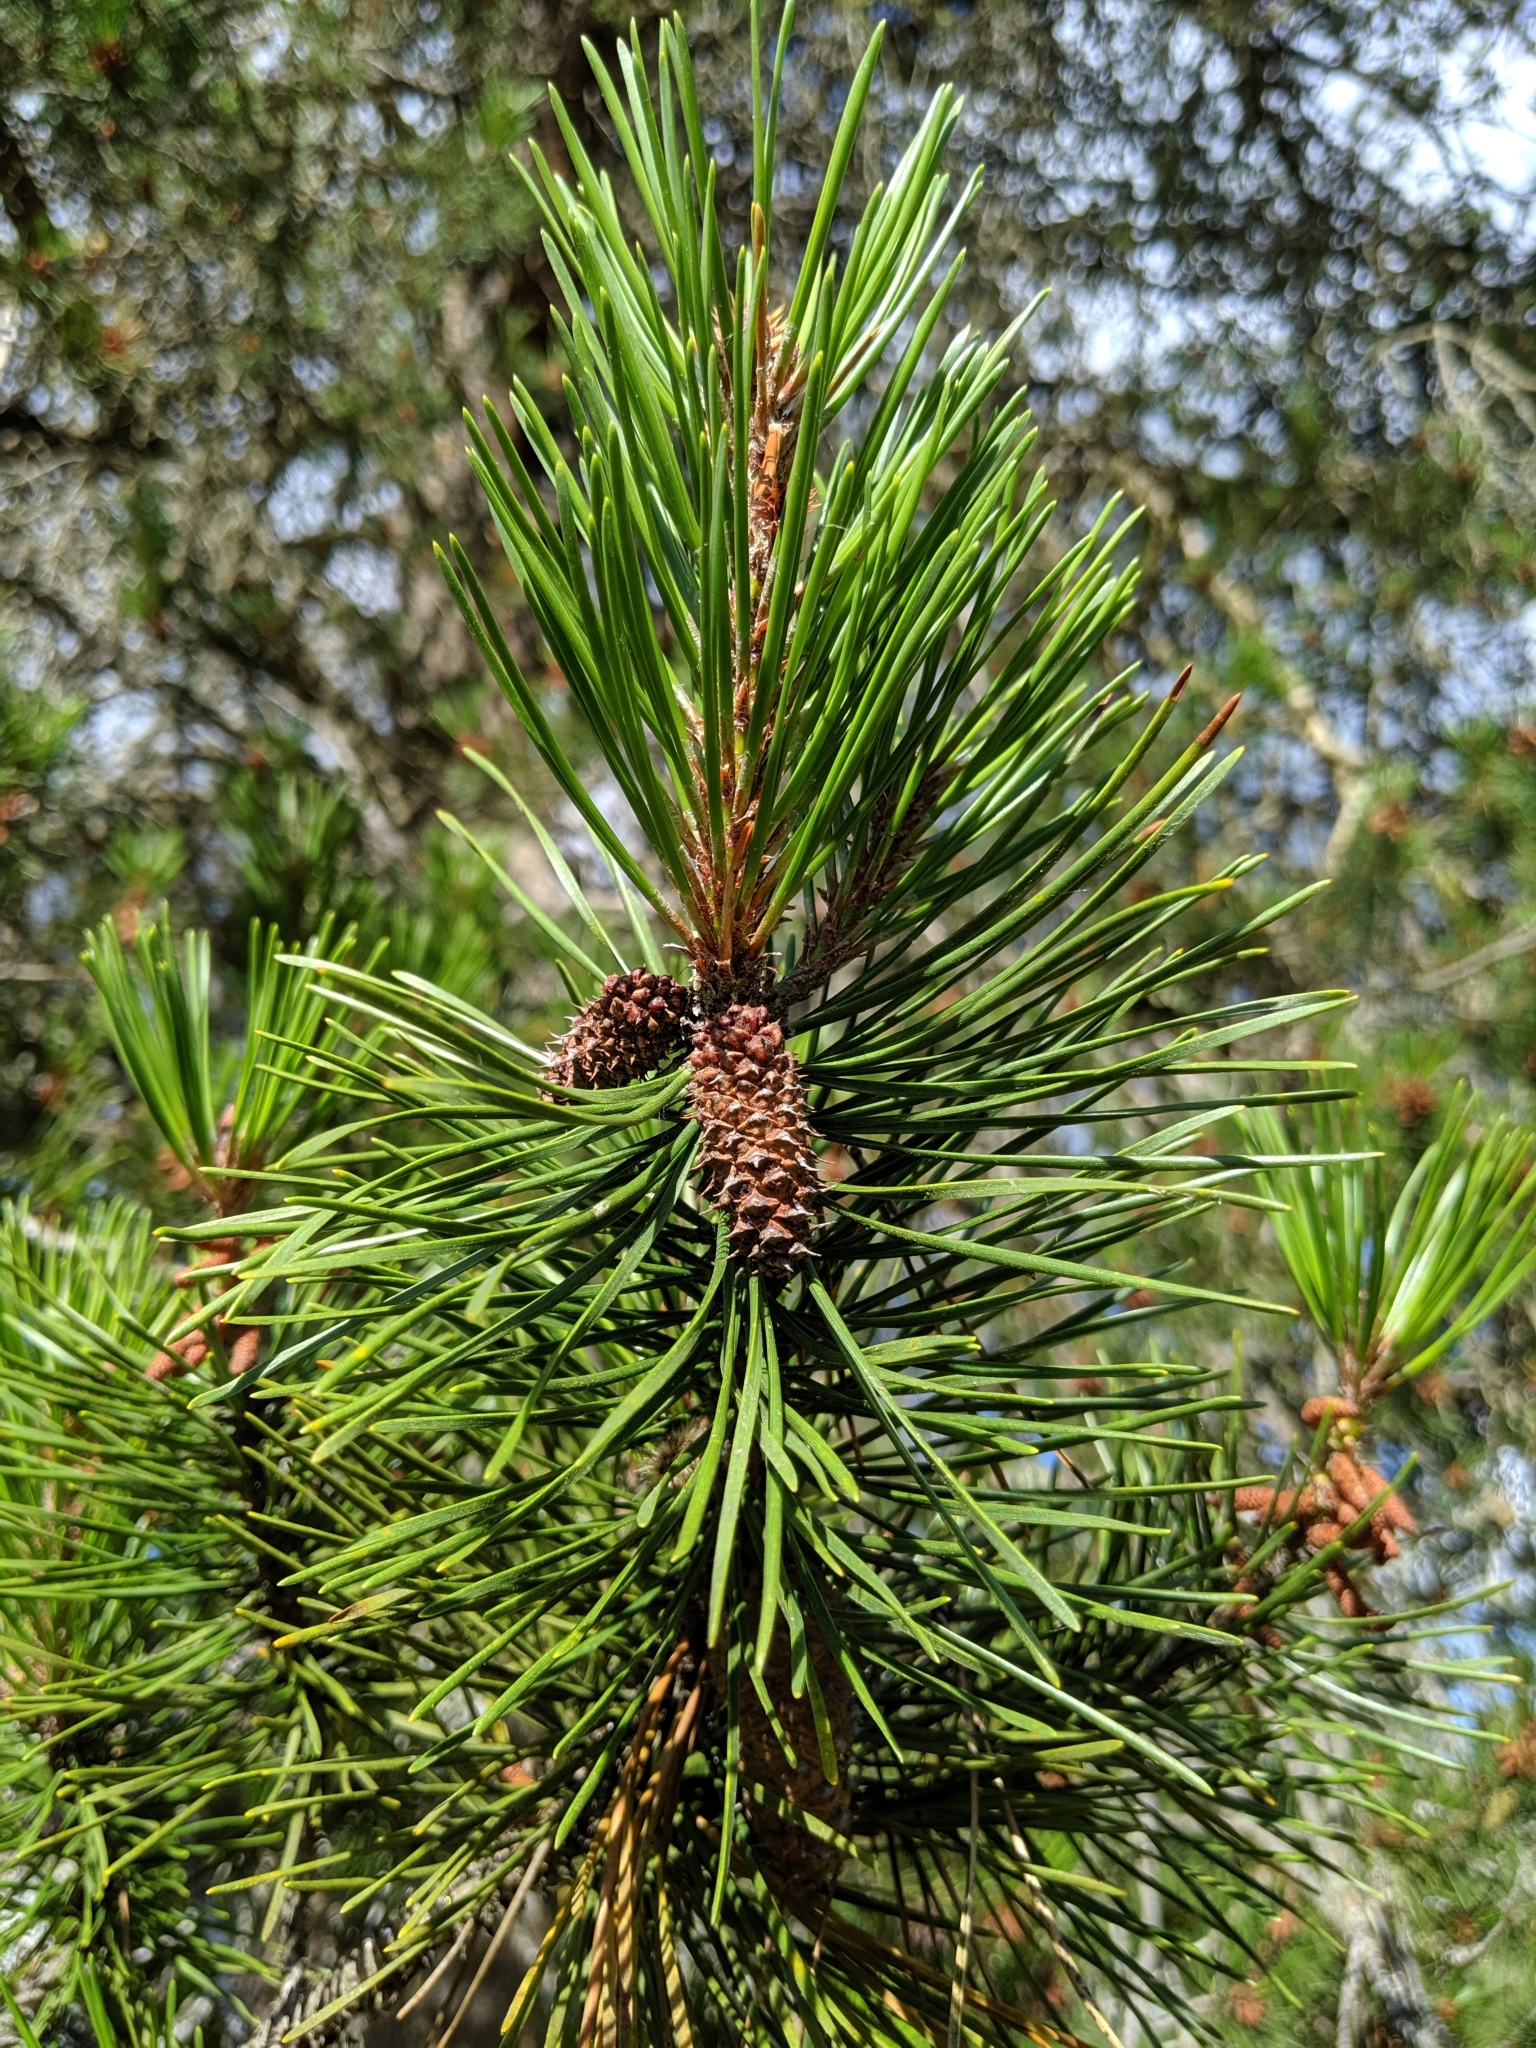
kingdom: Plantae
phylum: Tracheophyta
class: Pinopsida
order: Pinales
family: Pinaceae
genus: Pinus
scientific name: Pinus contorta
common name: Lodgepole pine
